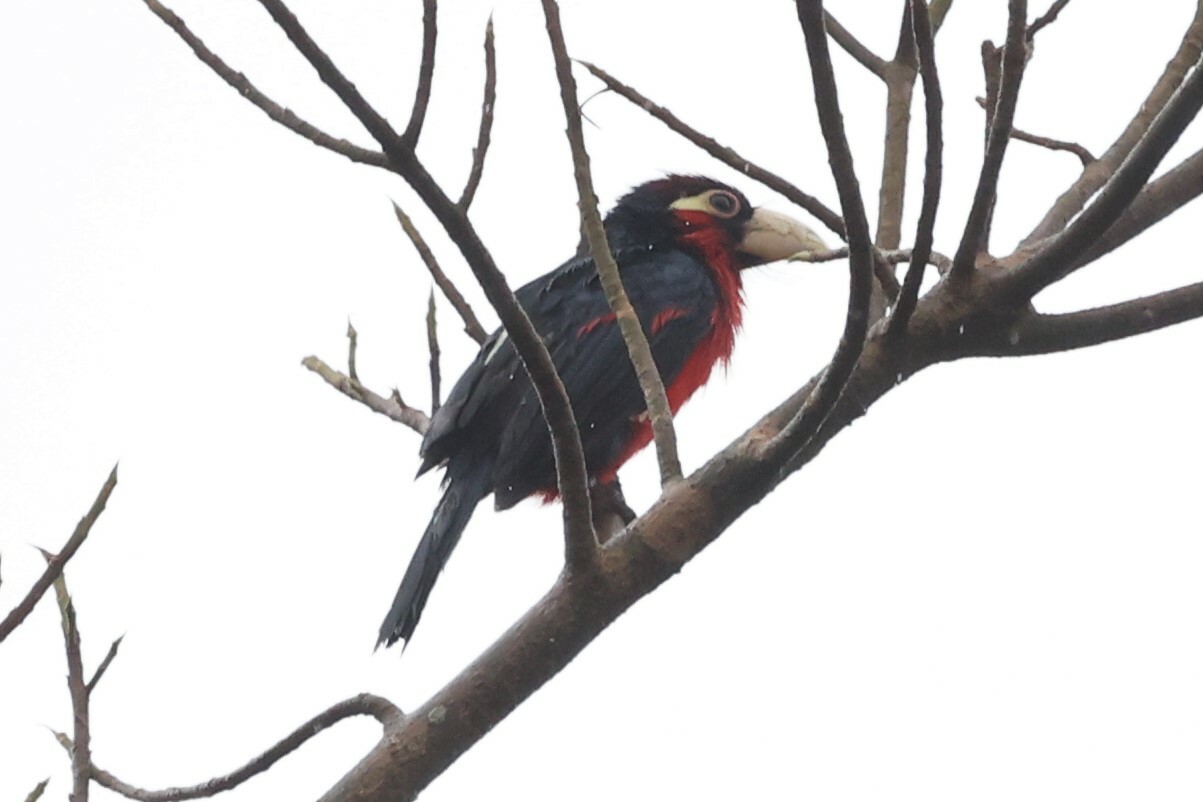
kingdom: Animalia
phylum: Chordata
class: Aves
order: Piciformes
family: Lybiidae
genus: Lybius
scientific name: Lybius bidentatus
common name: Double-toothed barbet
